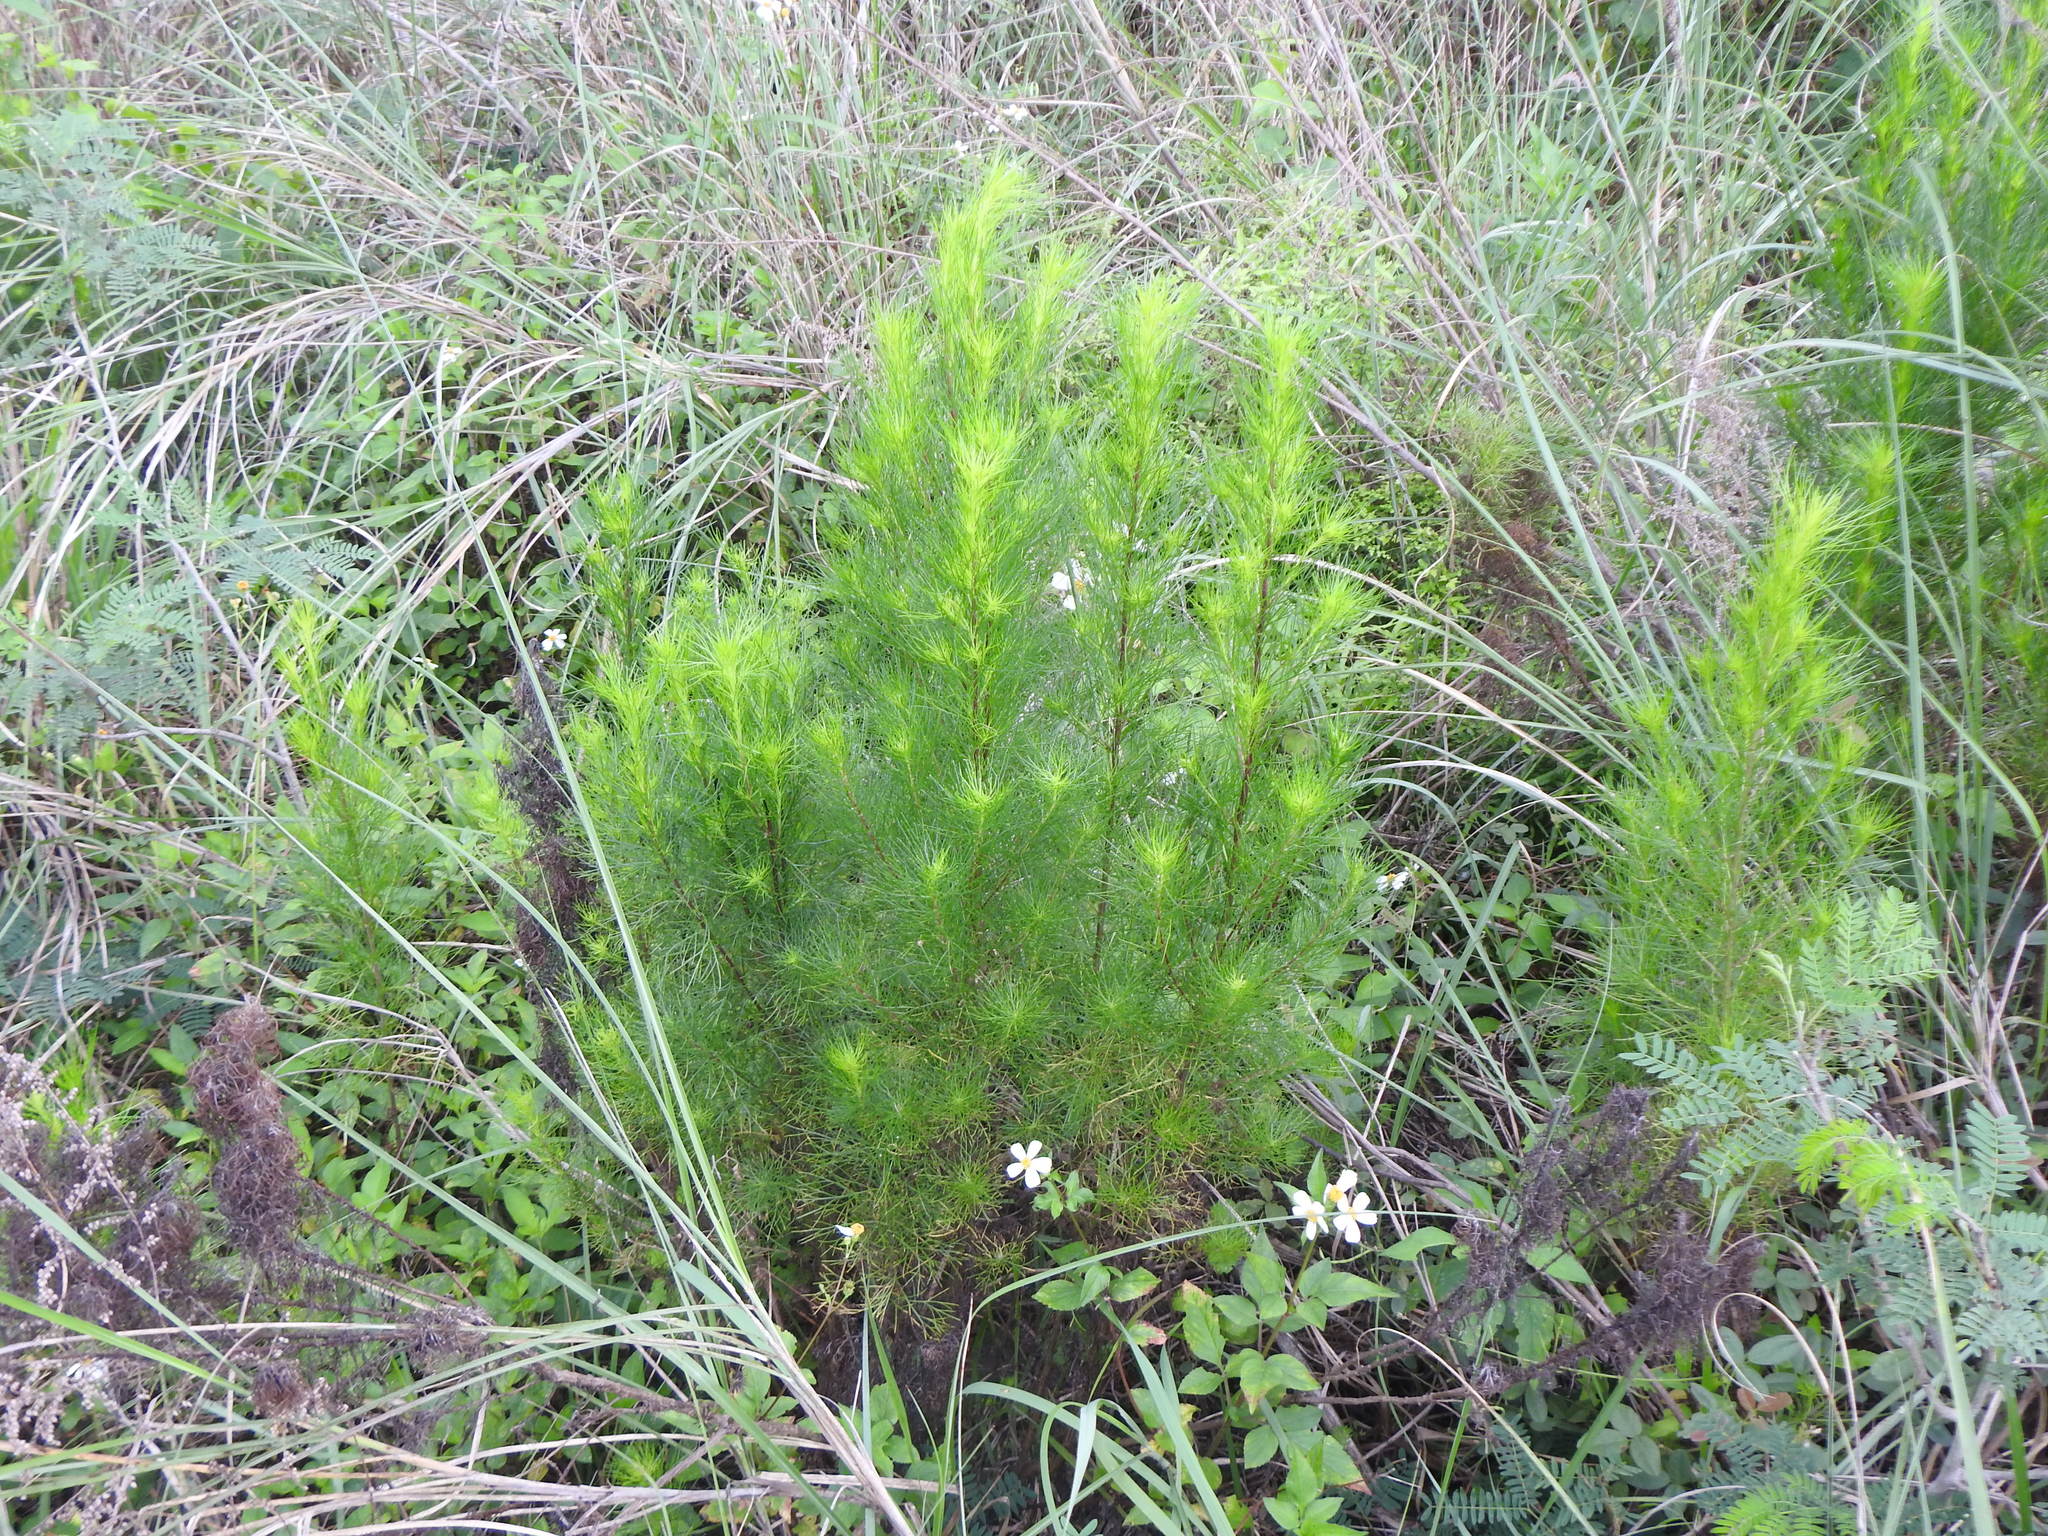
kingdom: Plantae
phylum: Tracheophyta
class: Magnoliopsida
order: Asterales
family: Asteraceae
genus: Artemisia
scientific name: Artemisia capillaris
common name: Yin-chen wormwood
